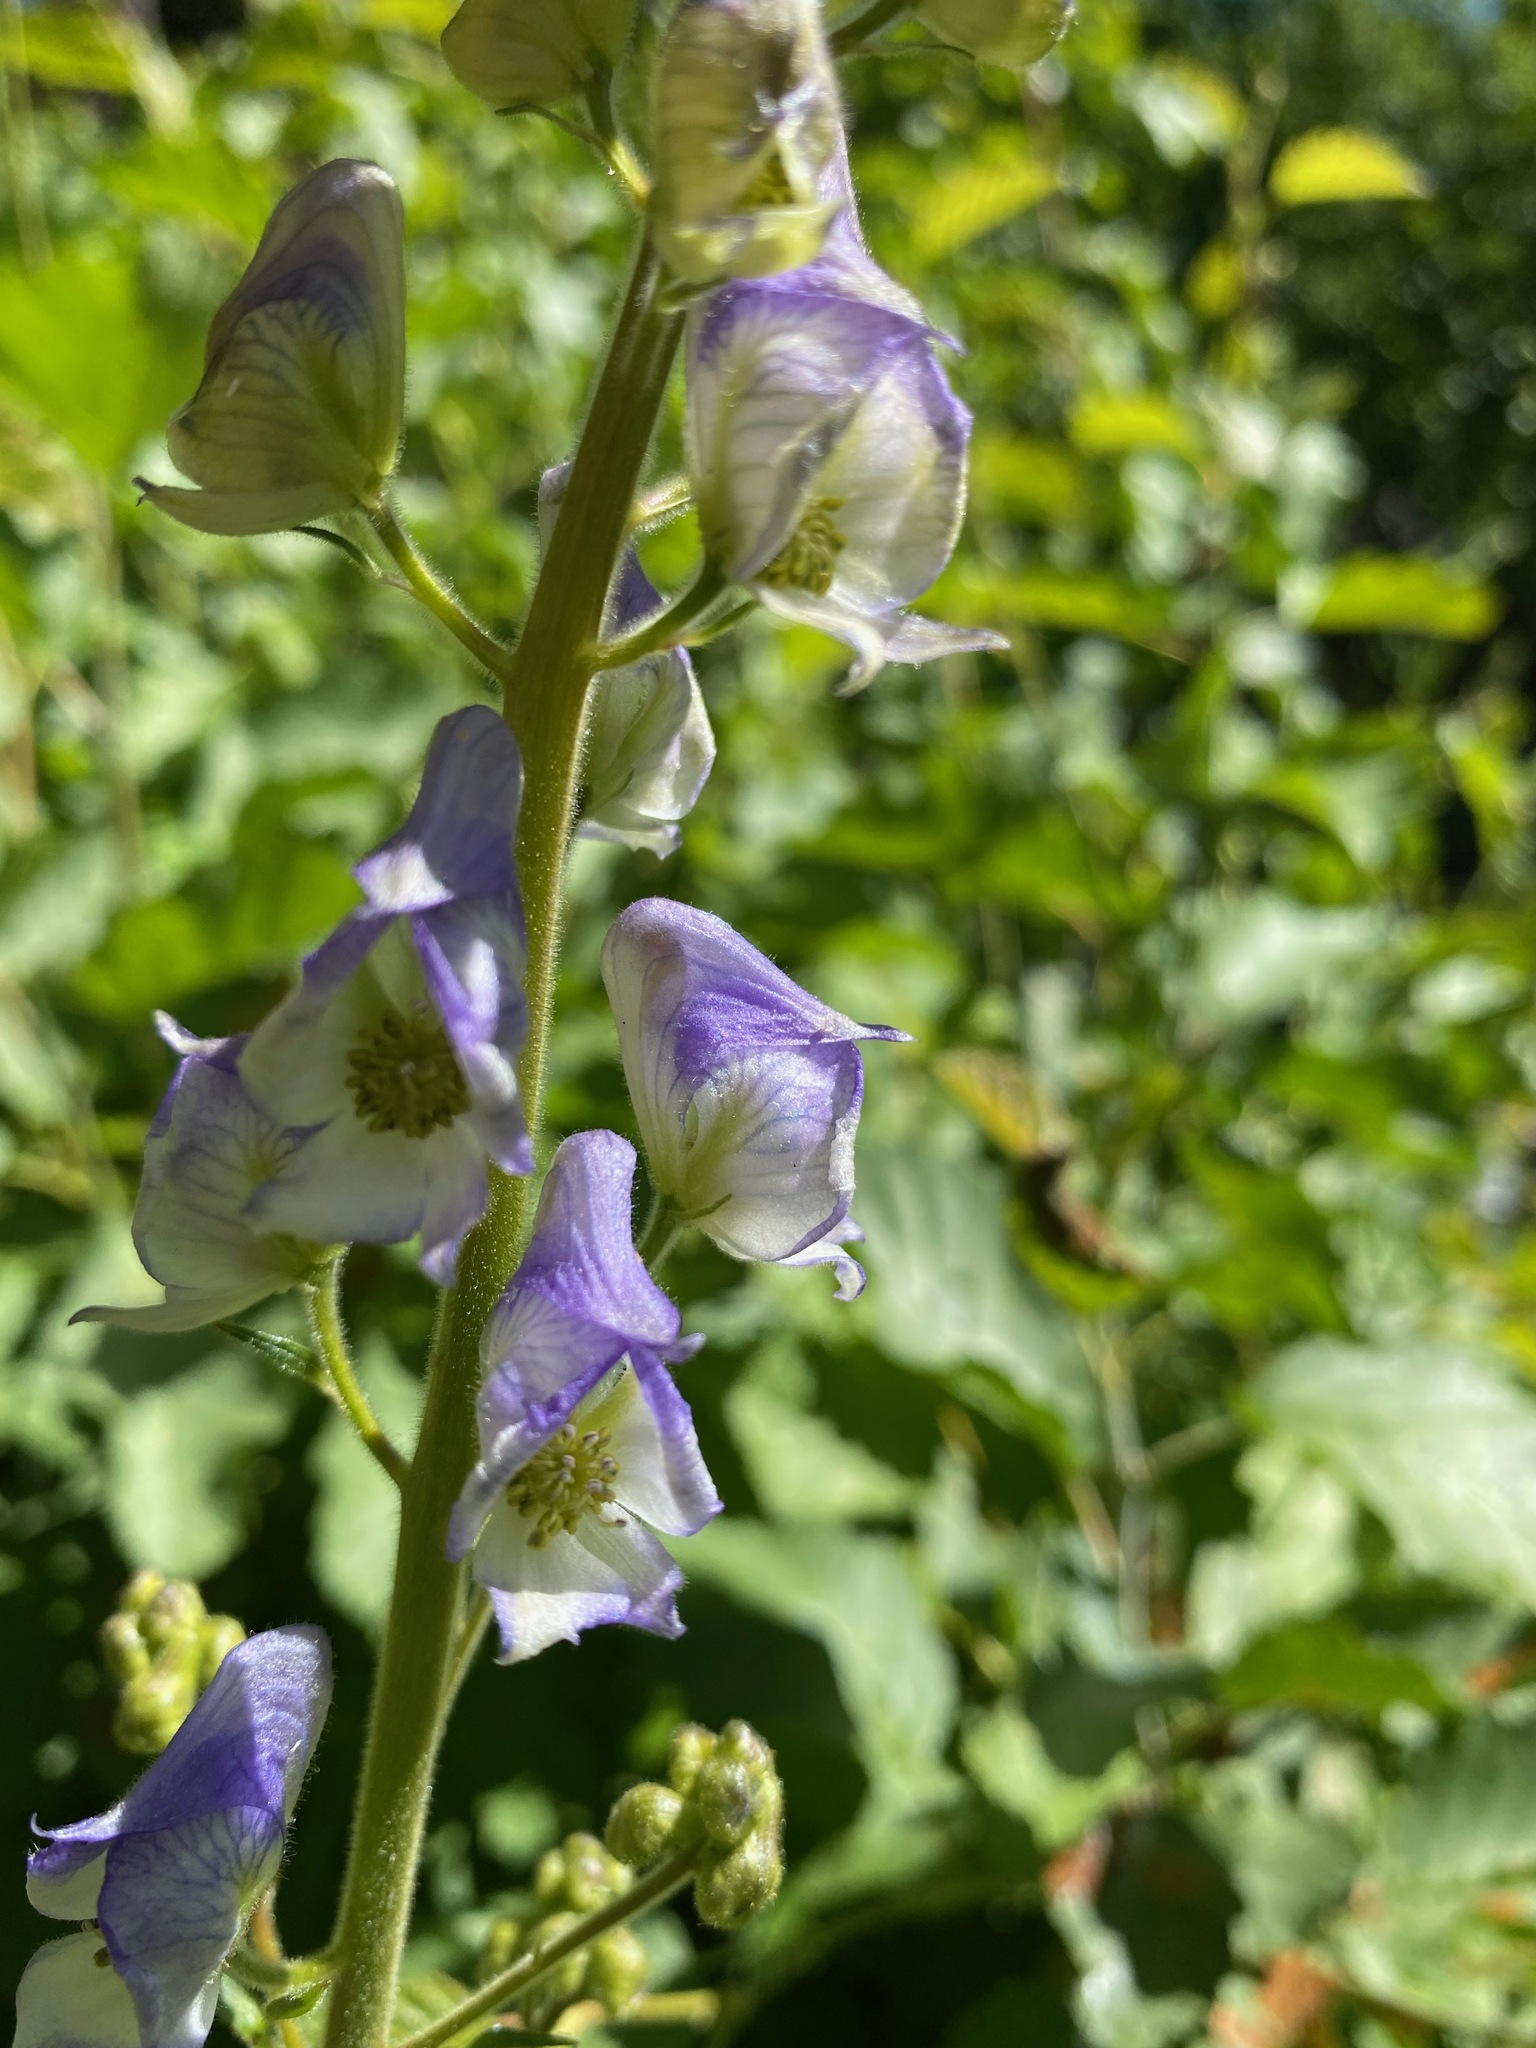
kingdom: Plantae
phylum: Tracheophyta
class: Magnoliopsida
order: Ranunculales
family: Ranunculaceae
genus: Aconitum
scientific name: Aconitum columbianum
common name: Columbia aconite
